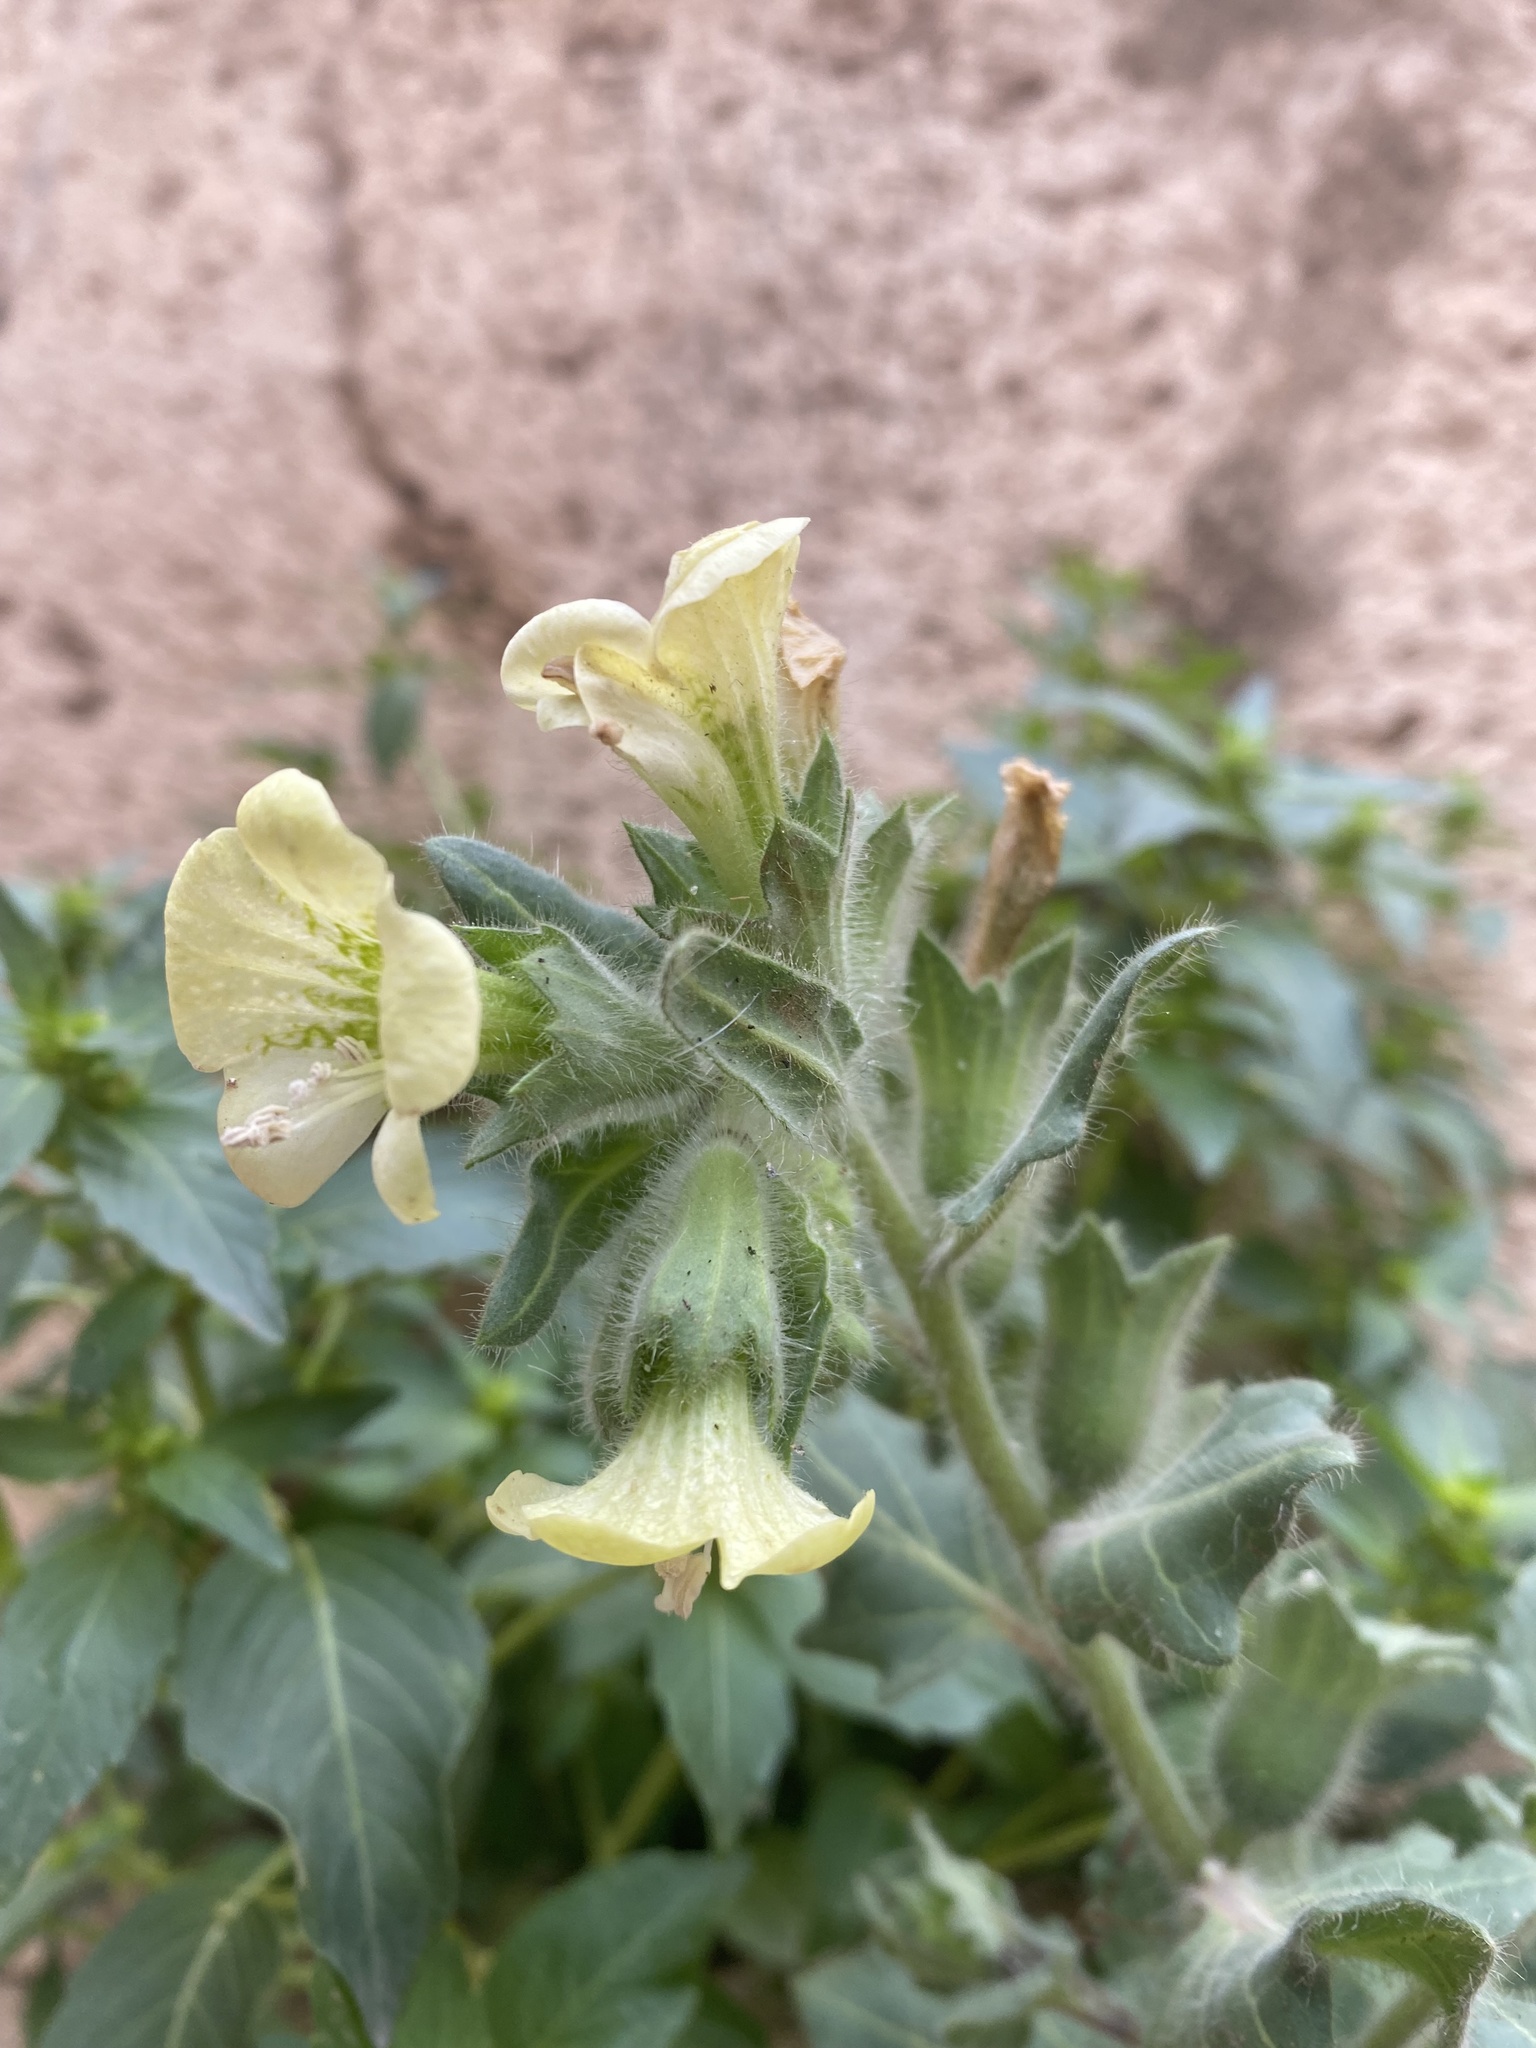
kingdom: Plantae
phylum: Tracheophyta
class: Magnoliopsida
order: Solanales
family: Solanaceae
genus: Hyoscyamus
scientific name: Hyoscyamus albus
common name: White henbane
